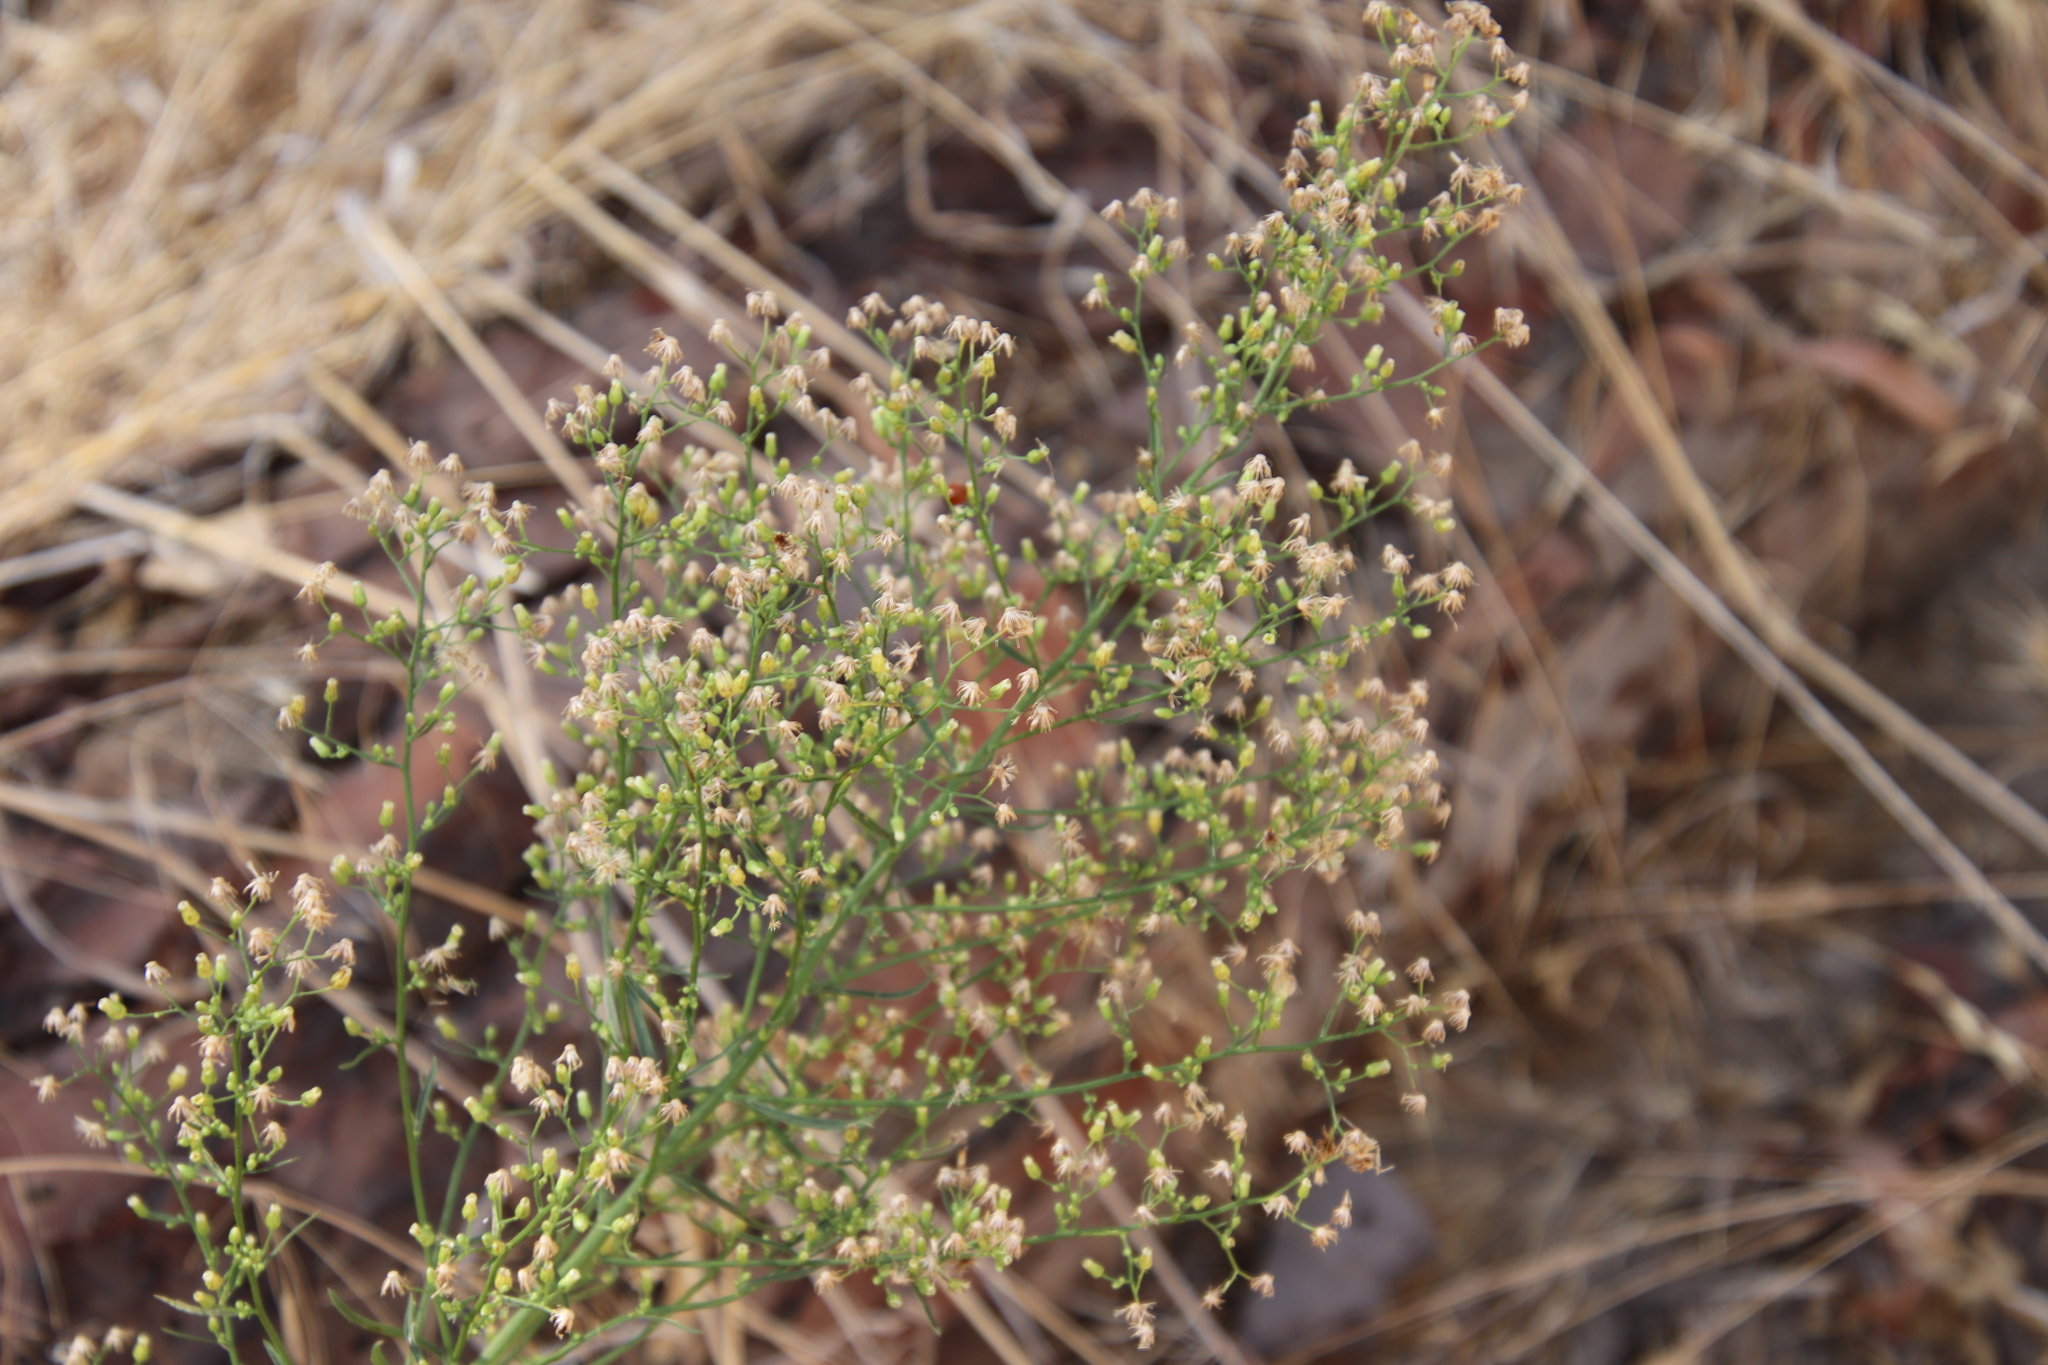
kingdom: Plantae
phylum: Tracheophyta
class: Magnoliopsida
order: Asterales
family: Asteraceae
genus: Erigeron
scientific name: Erigeron canadensis
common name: Canadian fleabane
